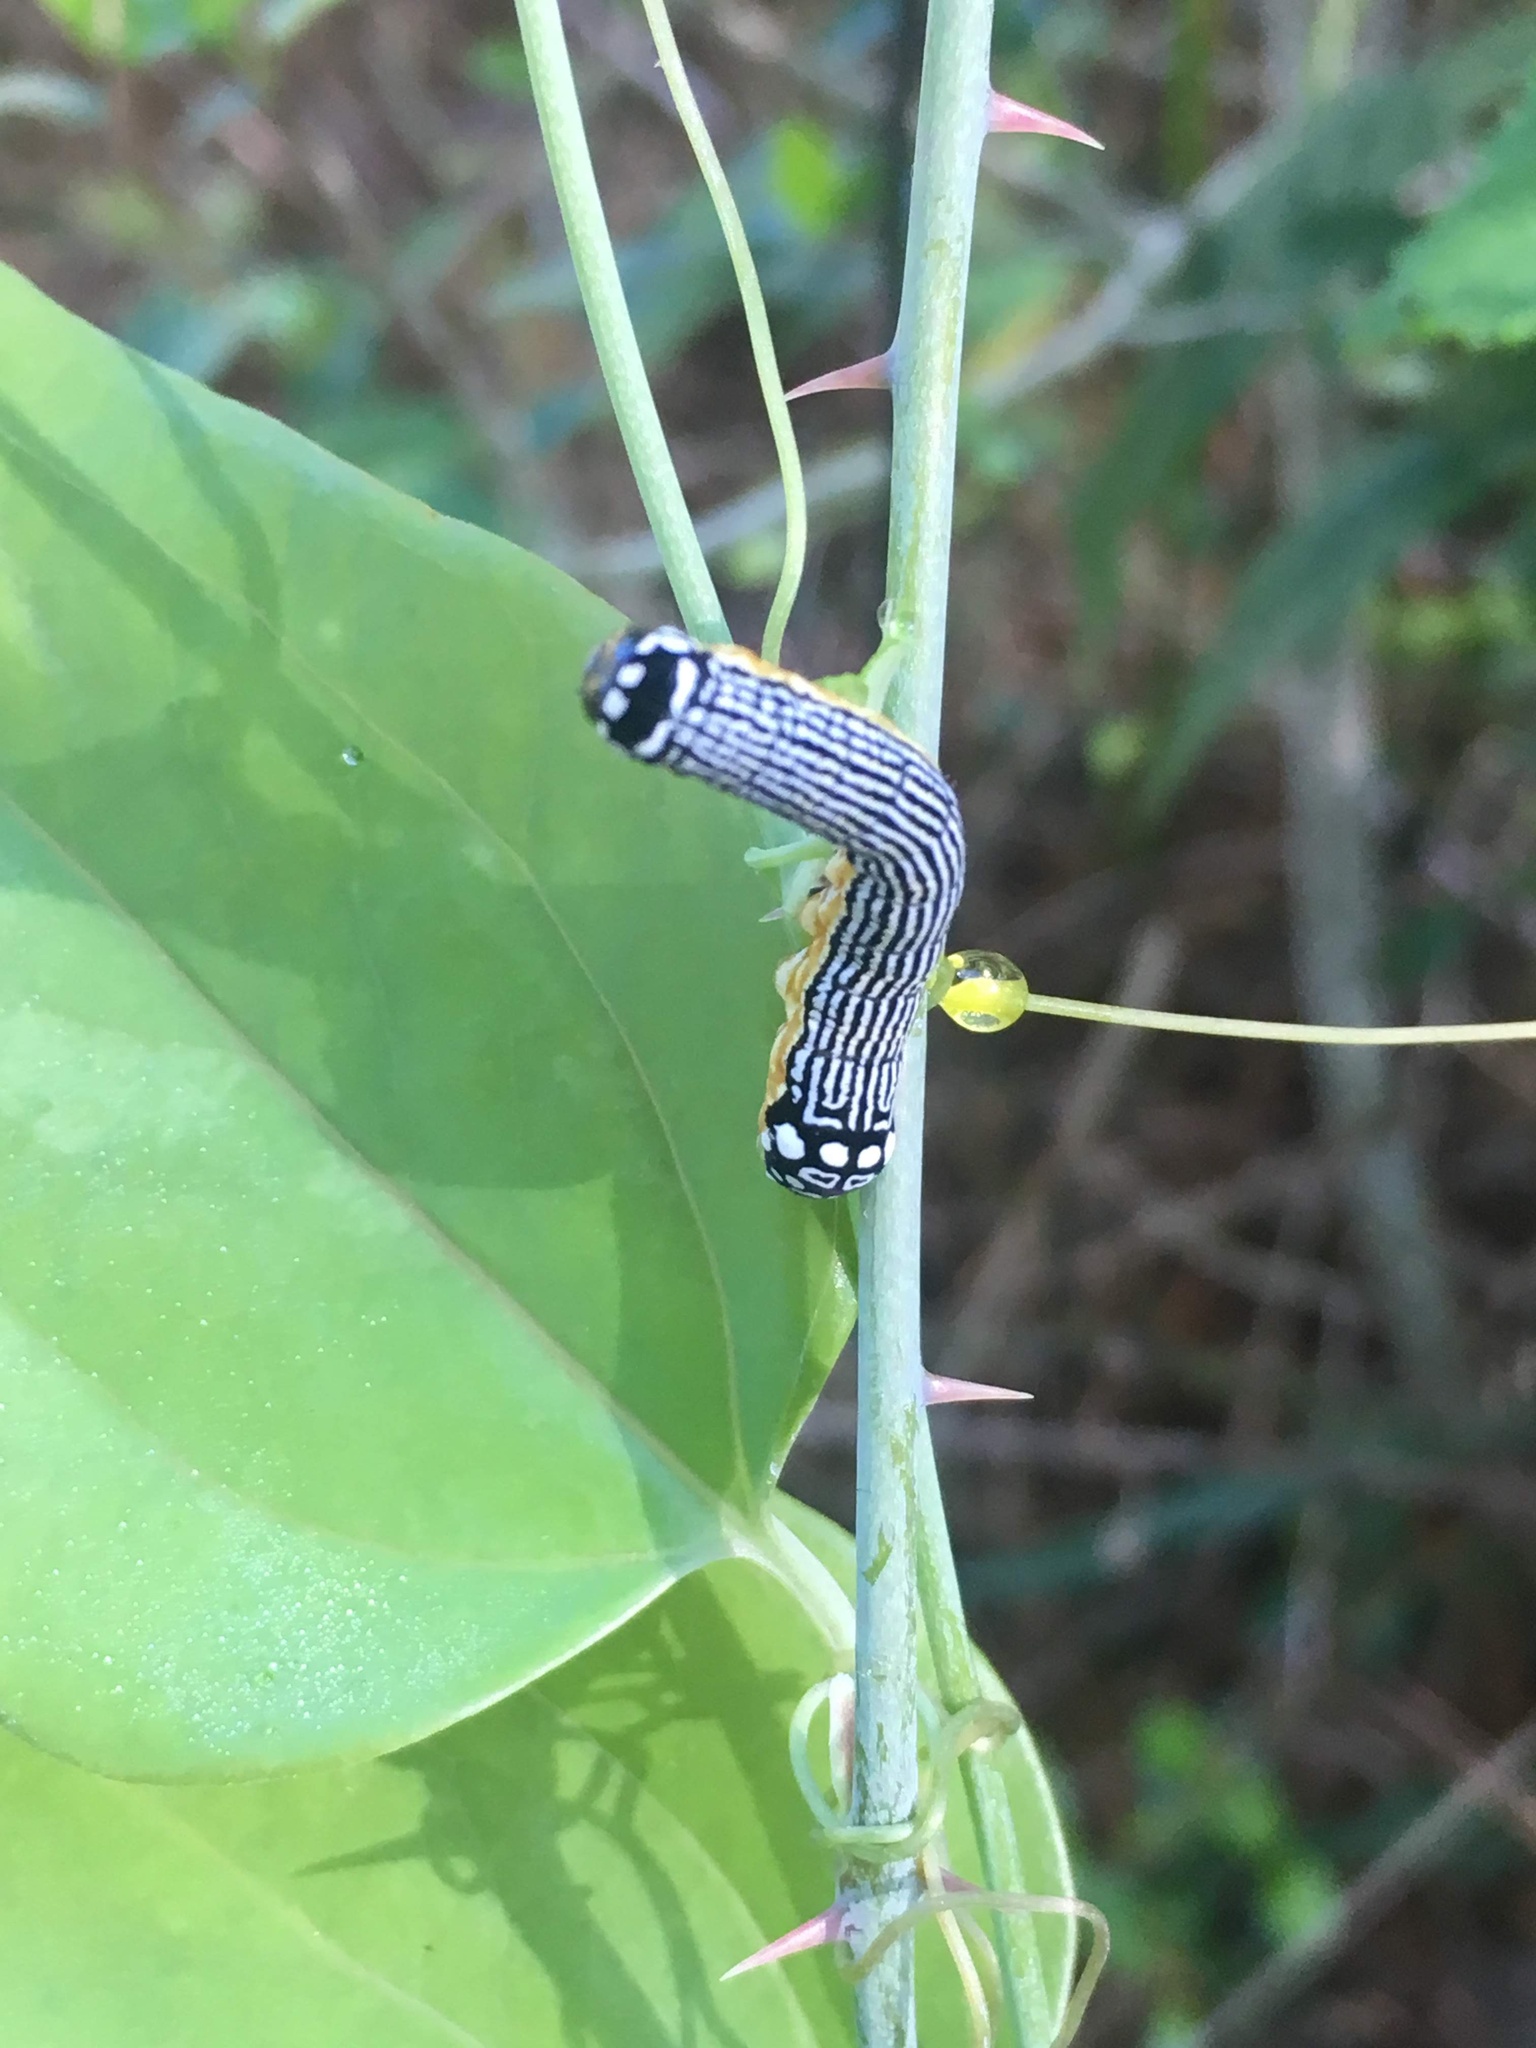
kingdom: Animalia
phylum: Arthropoda
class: Insecta
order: Lepidoptera
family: Noctuidae
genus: Phosphila
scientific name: Phosphila turbulenta
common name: Turbulent phosphila moth
